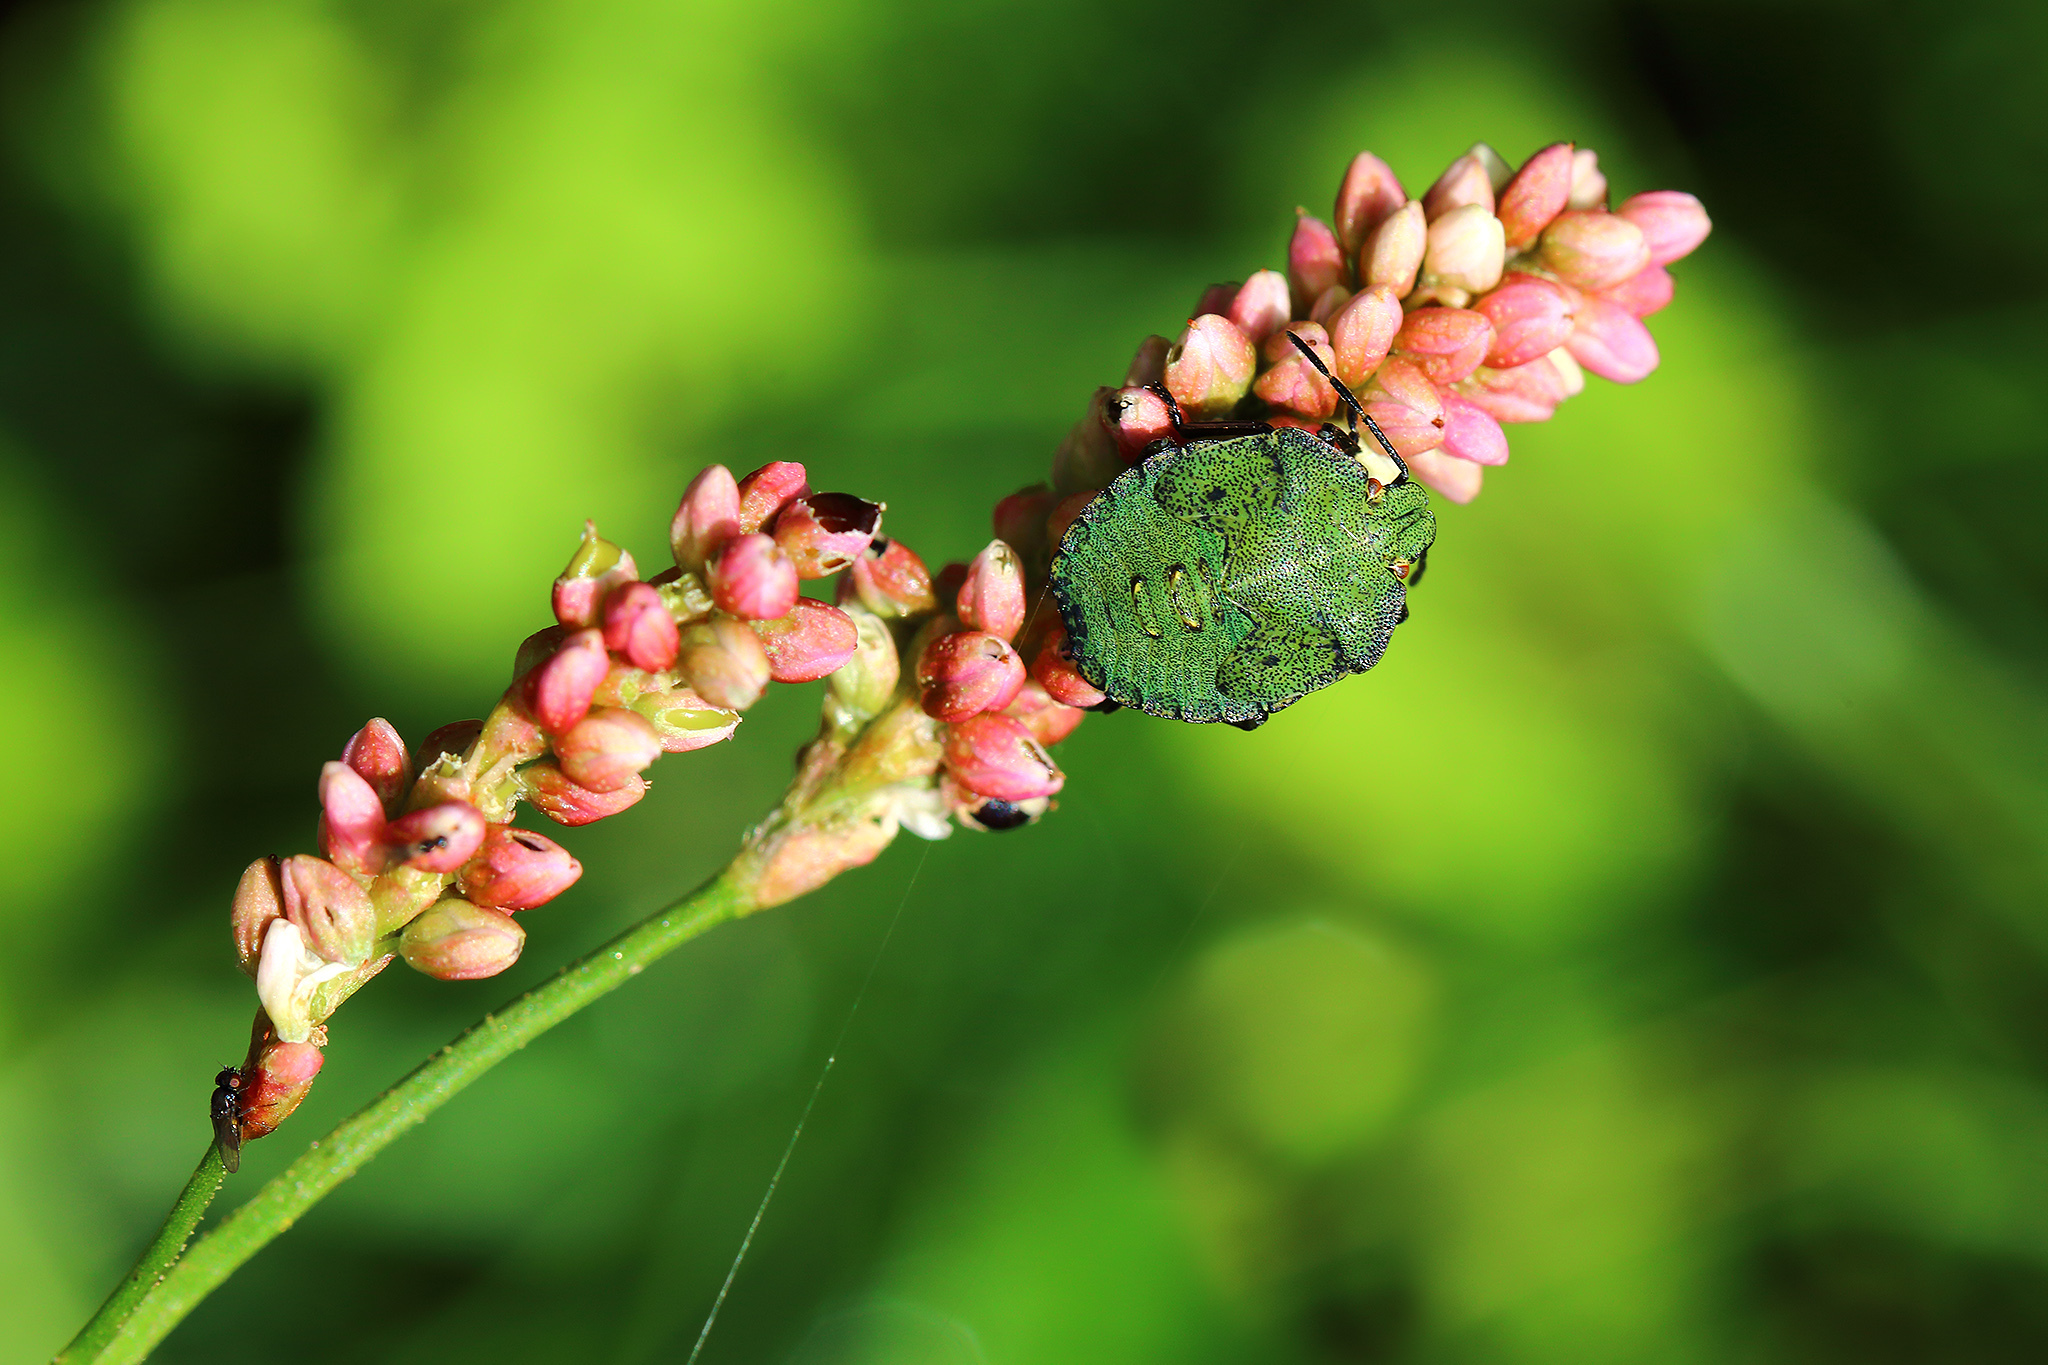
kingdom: Animalia
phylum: Arthropoda
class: Insecta
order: Hemiptera
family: Pentatomidae
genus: Palomena
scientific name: Palomena prasina
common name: Green shieldbug
